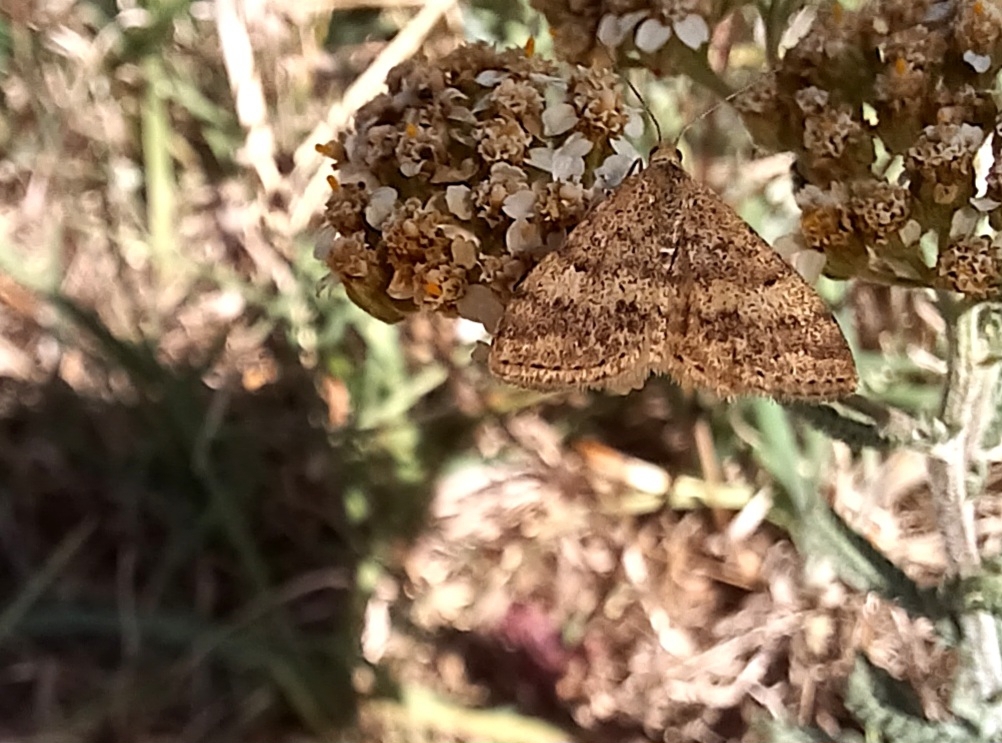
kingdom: Animalia
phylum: Arthropoda
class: Insecta
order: Lepidoptera
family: Geometridae
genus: Scopula
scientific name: Scopula rubraria
